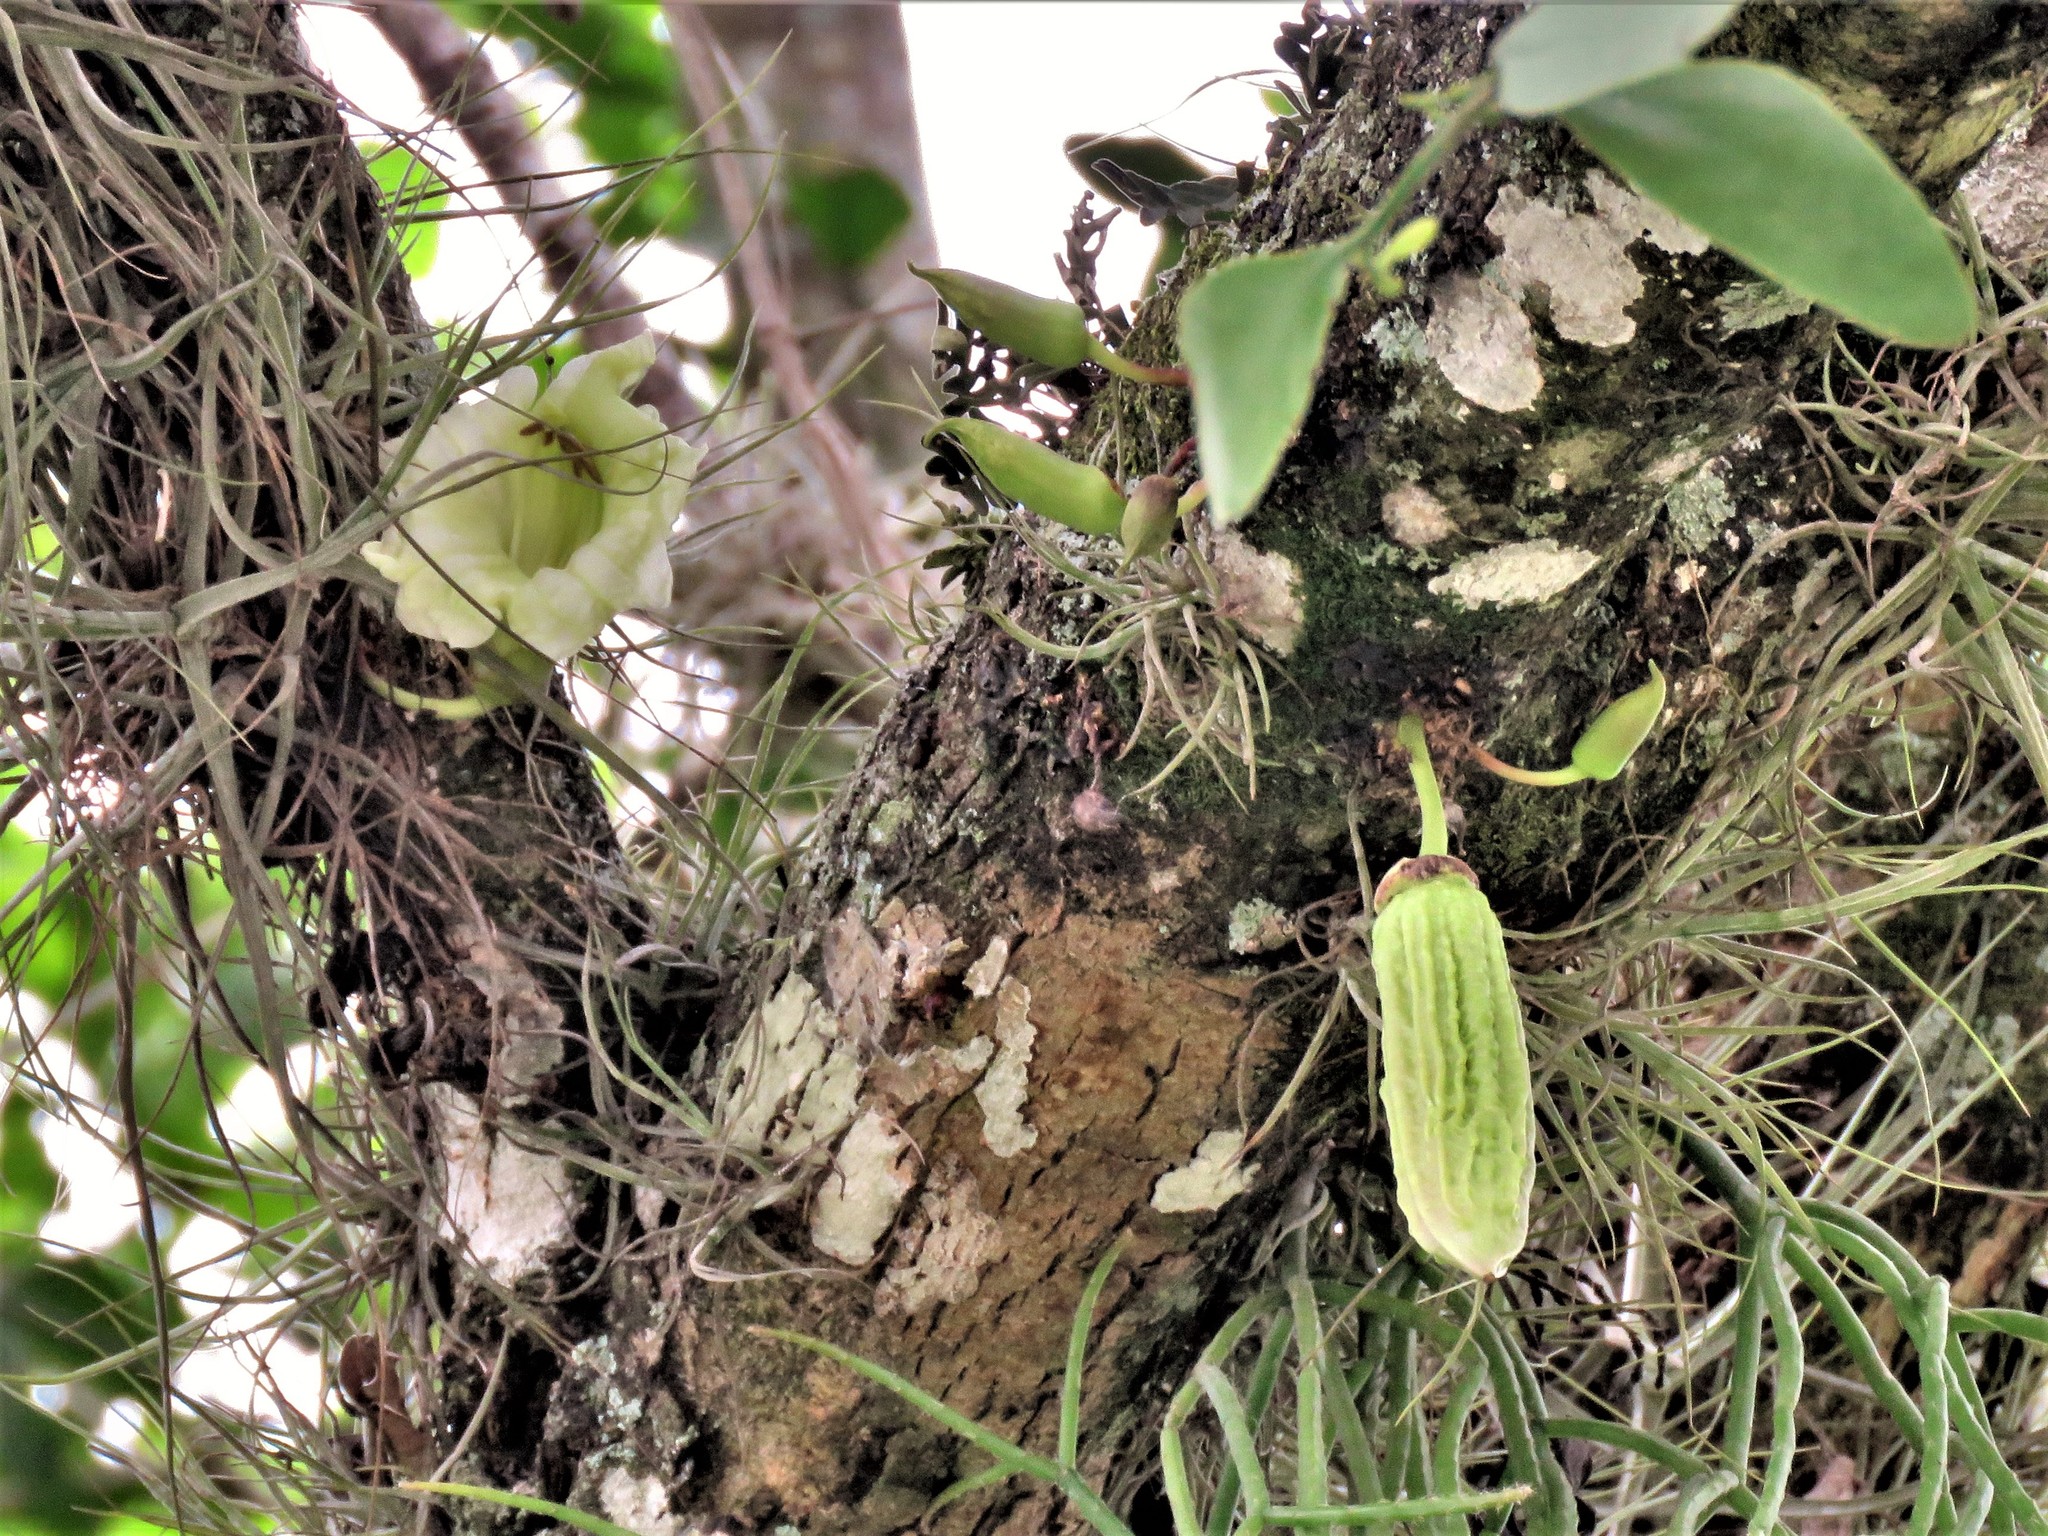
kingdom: Plantae
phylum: Tracheophyta
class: Magnoliopsida
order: Lamiales
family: Bignoniaceae
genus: Parmentiera
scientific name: Parmentiera aculeata
